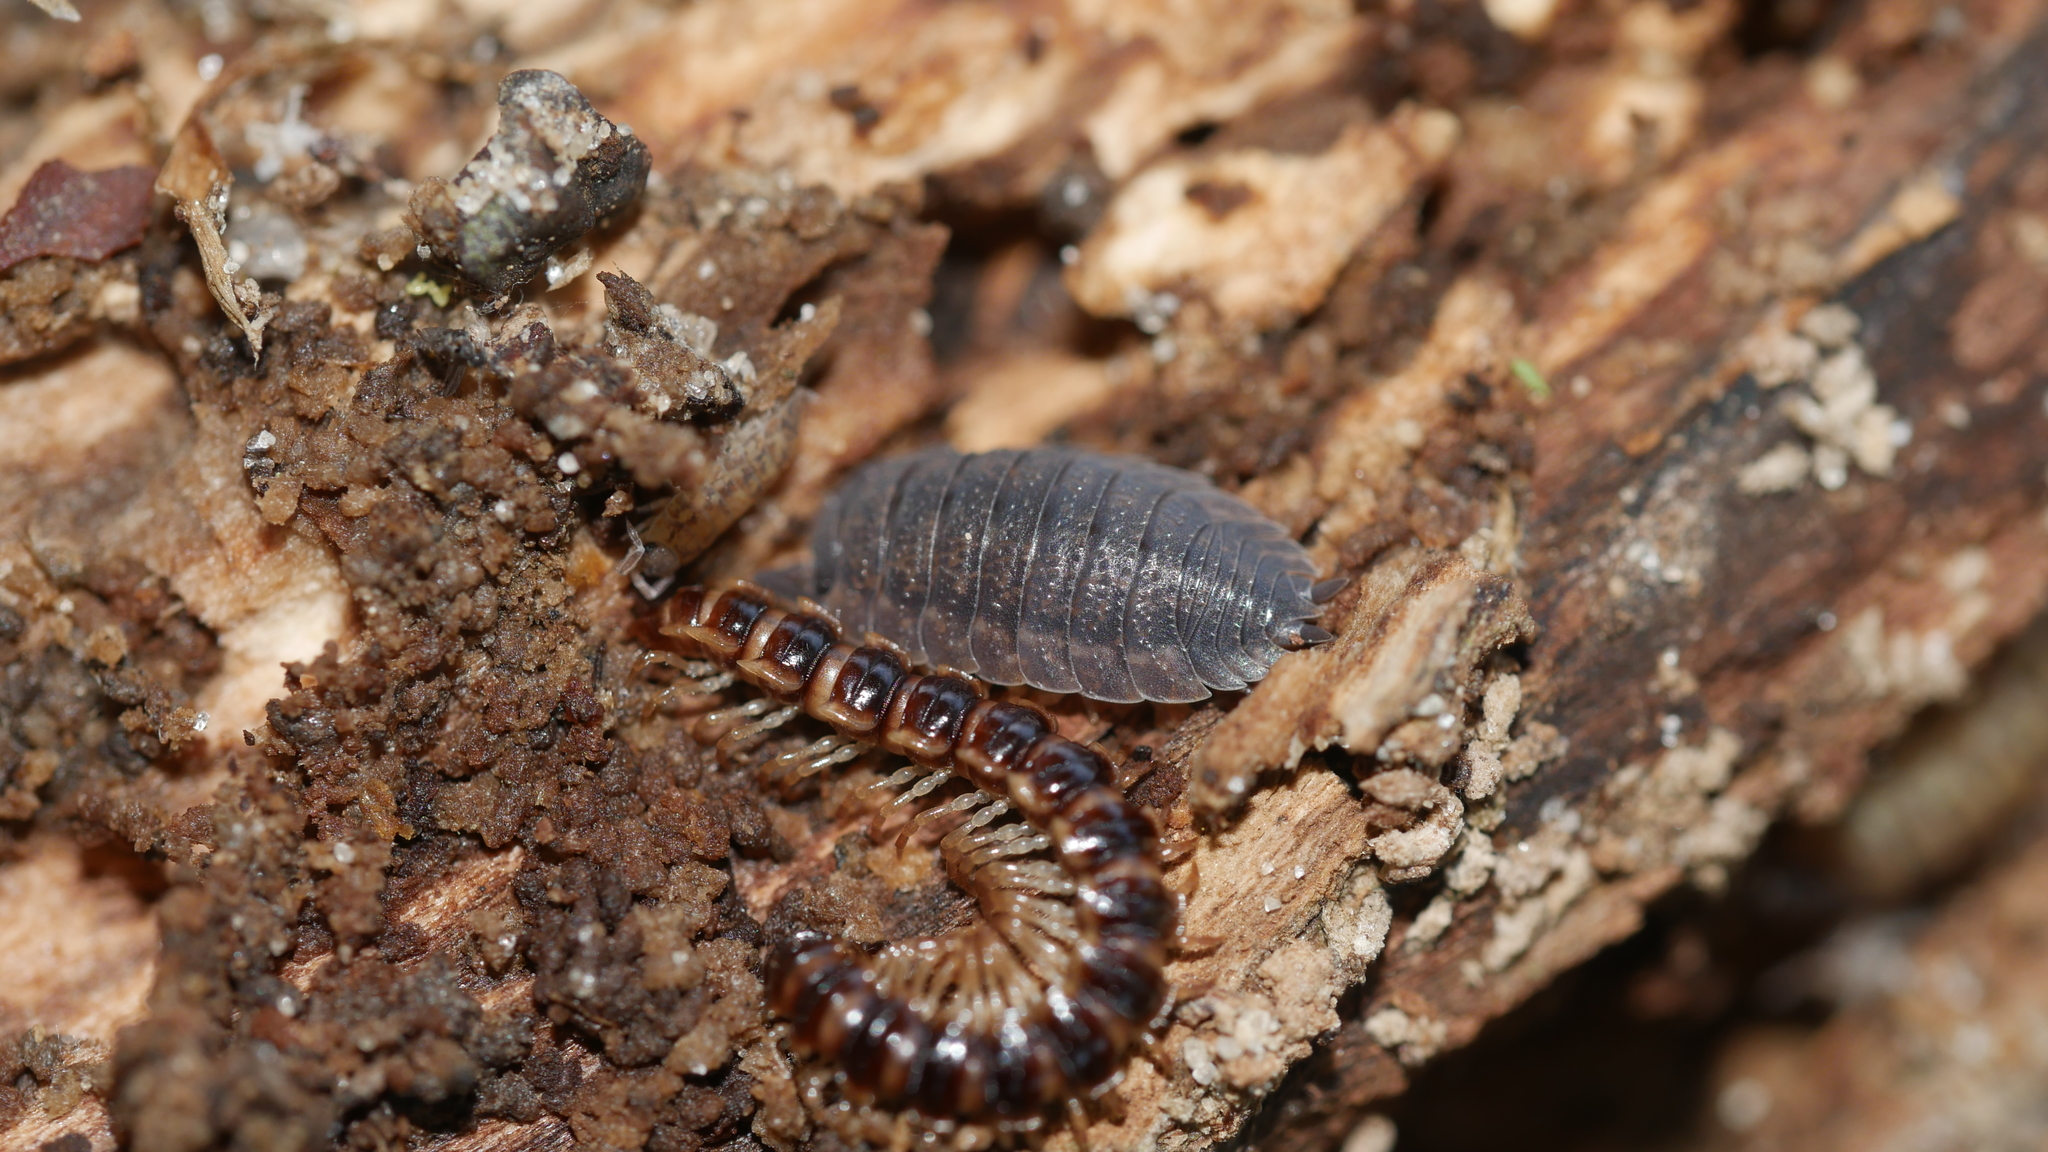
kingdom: Animalia
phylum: Arthropoda
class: Malacostraca
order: Isopoda
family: Porcellionidae
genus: Porcellio
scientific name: Porcellio scaber
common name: Common rough woodlouse
